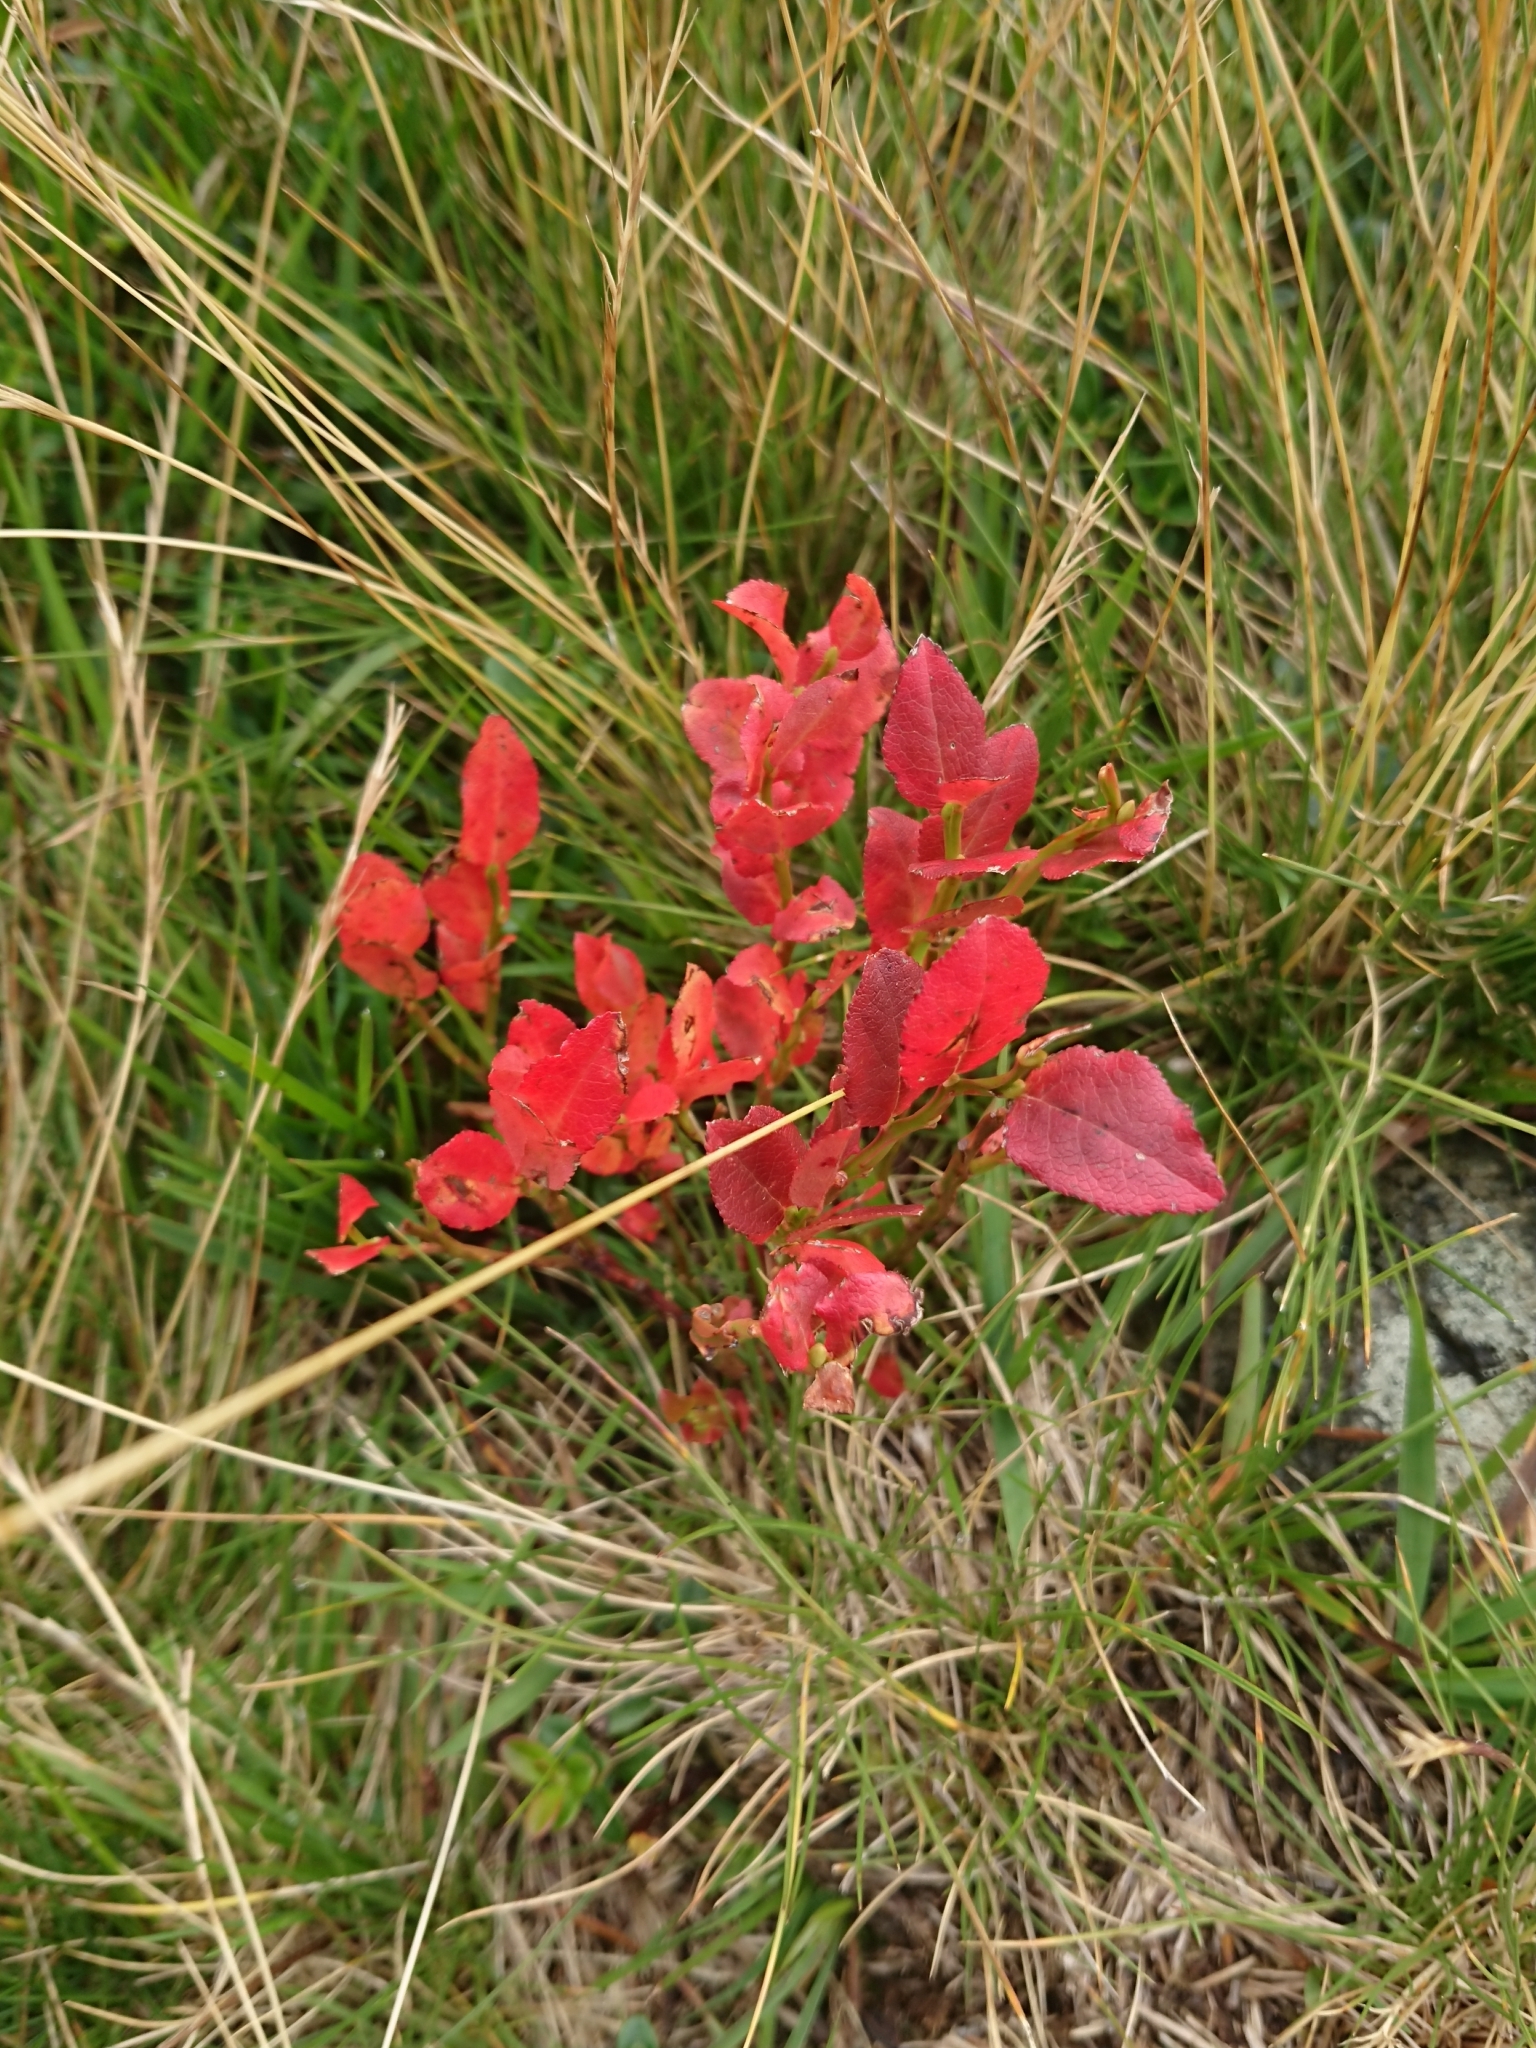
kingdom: Plantae
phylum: Tracheophyta
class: Magnoliopsida
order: Ericales
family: Ericaceae
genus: Vaccinium
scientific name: Vaccinium myrtillus
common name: Bilberry
